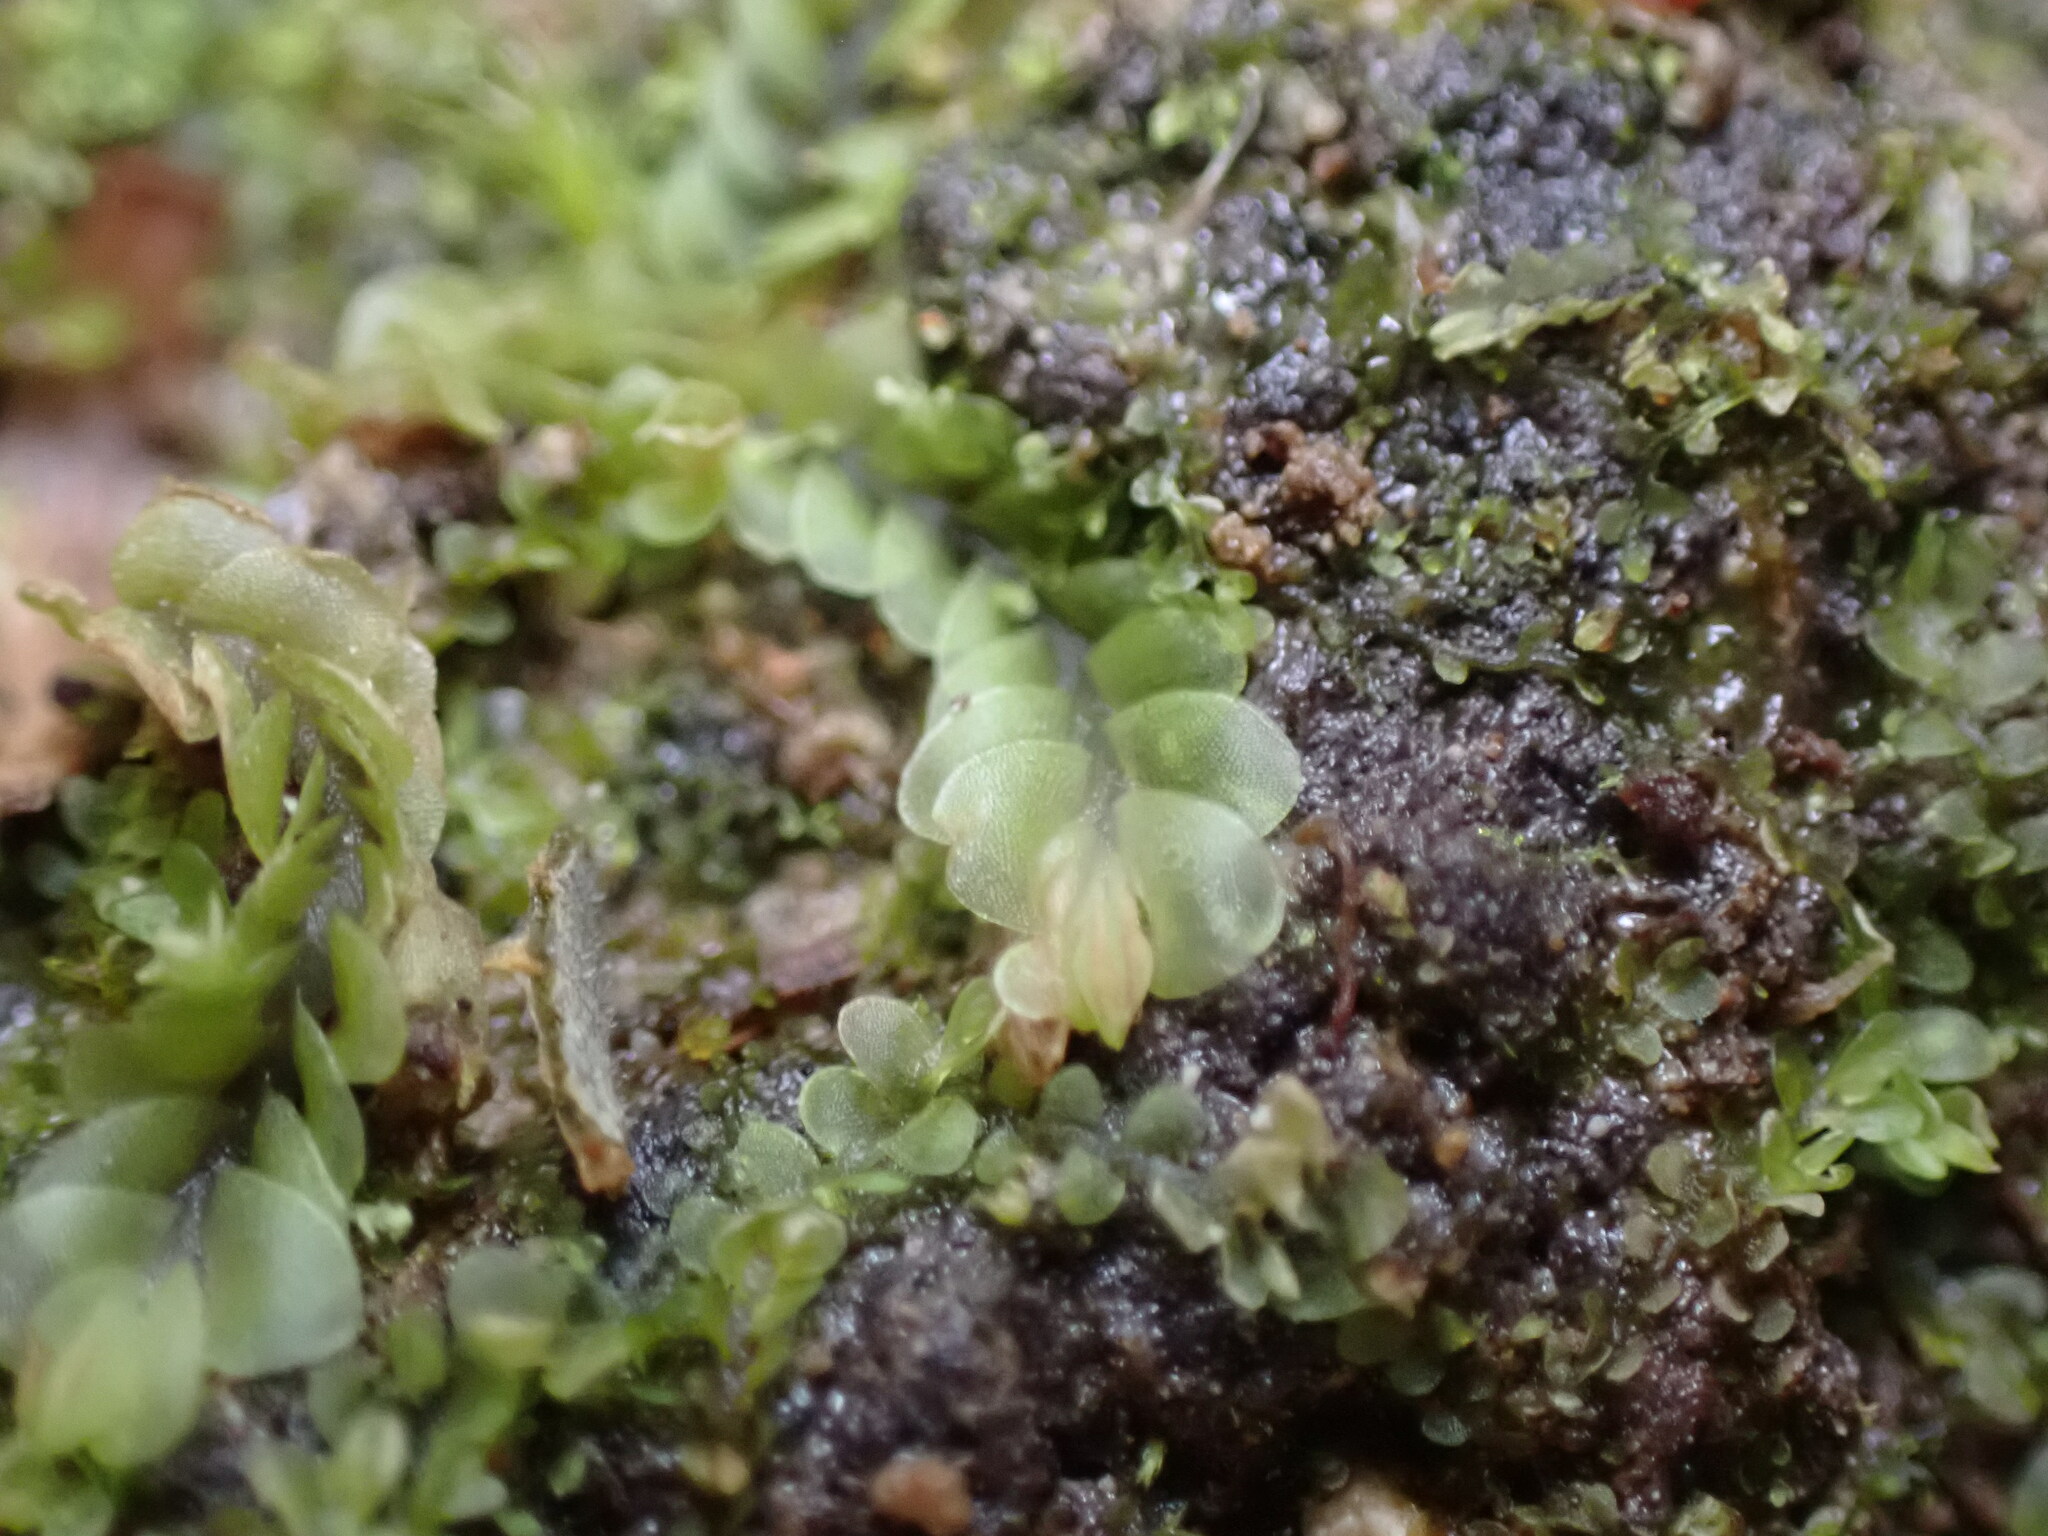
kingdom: Plantae
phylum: Marchantiophyta
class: Jungermanniopsida
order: Jungermanniales
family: Gyrothyraceae
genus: Gyrothyra
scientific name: Gyrothyra underwoodiana
